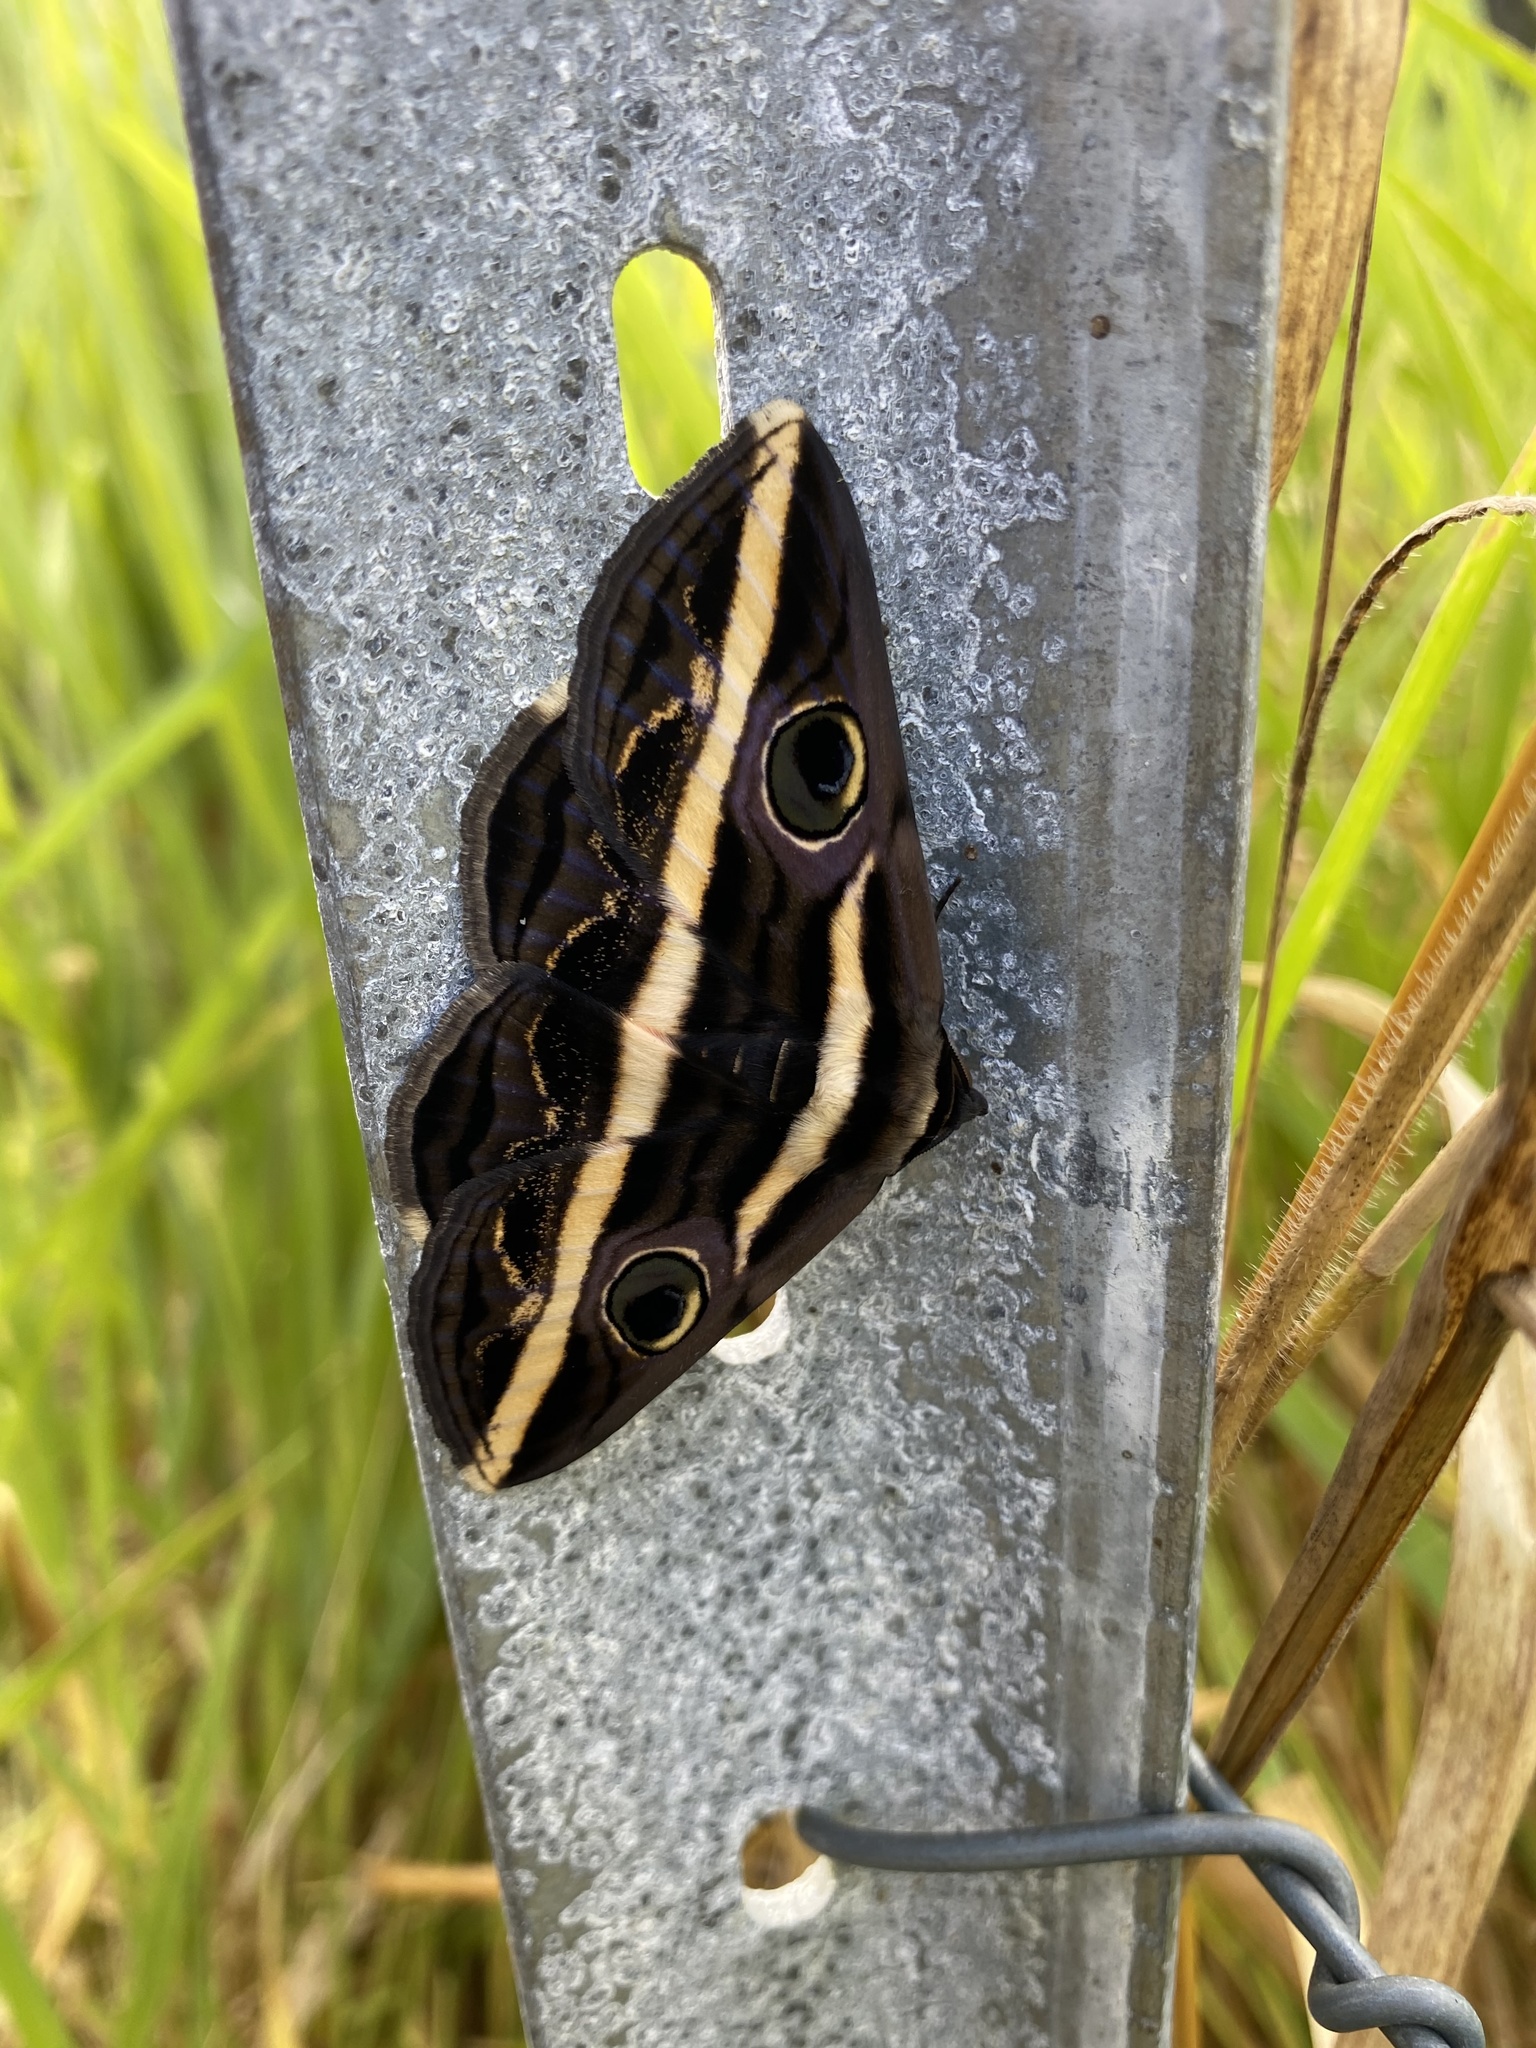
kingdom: Animalia
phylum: Arthropoda
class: Insecta
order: Lepidoptera
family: Erebidae
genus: Donuca
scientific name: Donuca rubropicta
